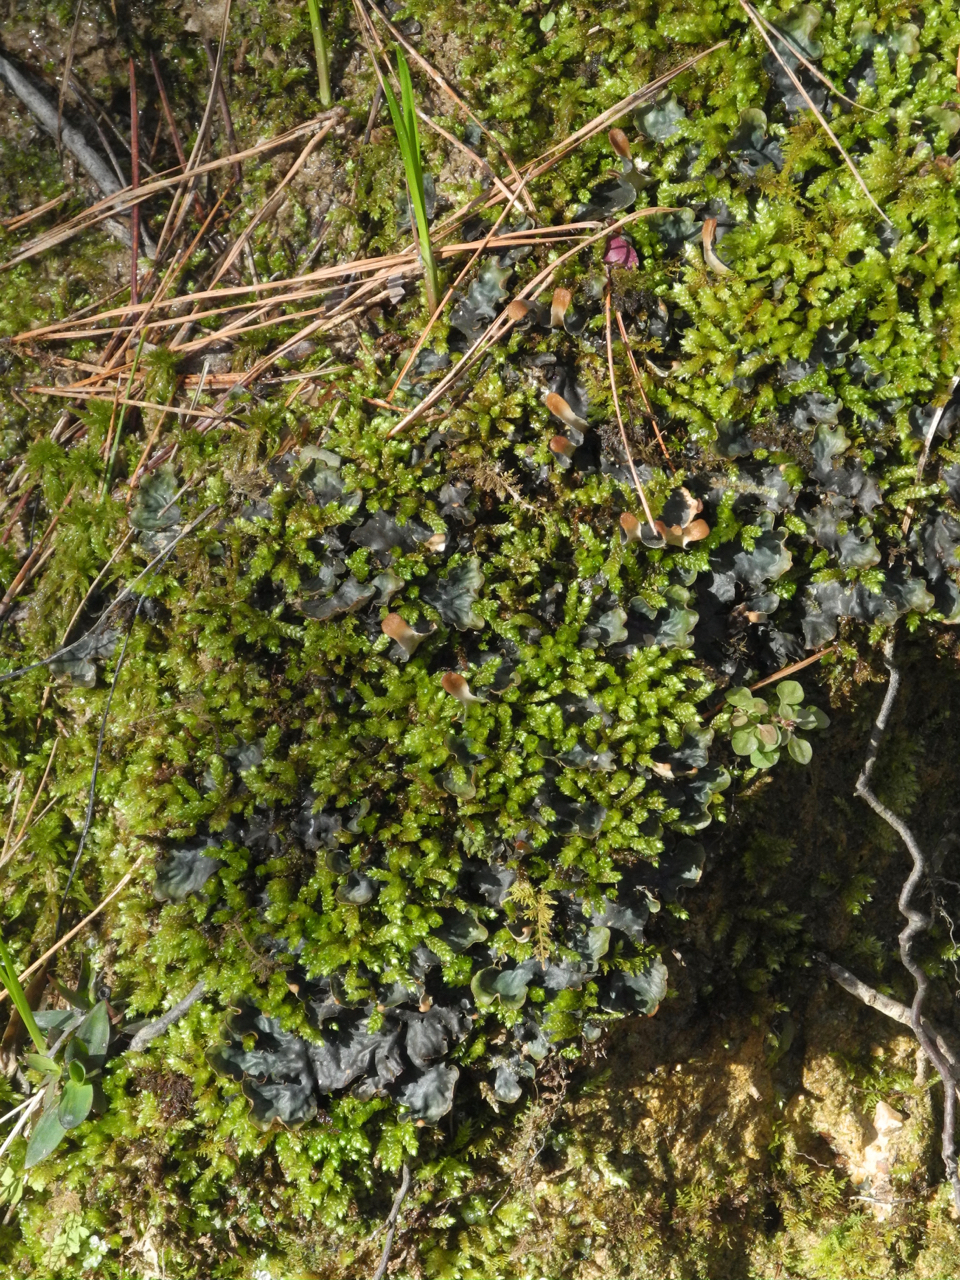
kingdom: Fungi
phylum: Ascomycota
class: Lecanoromycetes
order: Peltigerales
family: Peltigeraceae
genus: Peltigera
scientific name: Peltigera polydactylon
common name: Many-fruited pelt lichen
